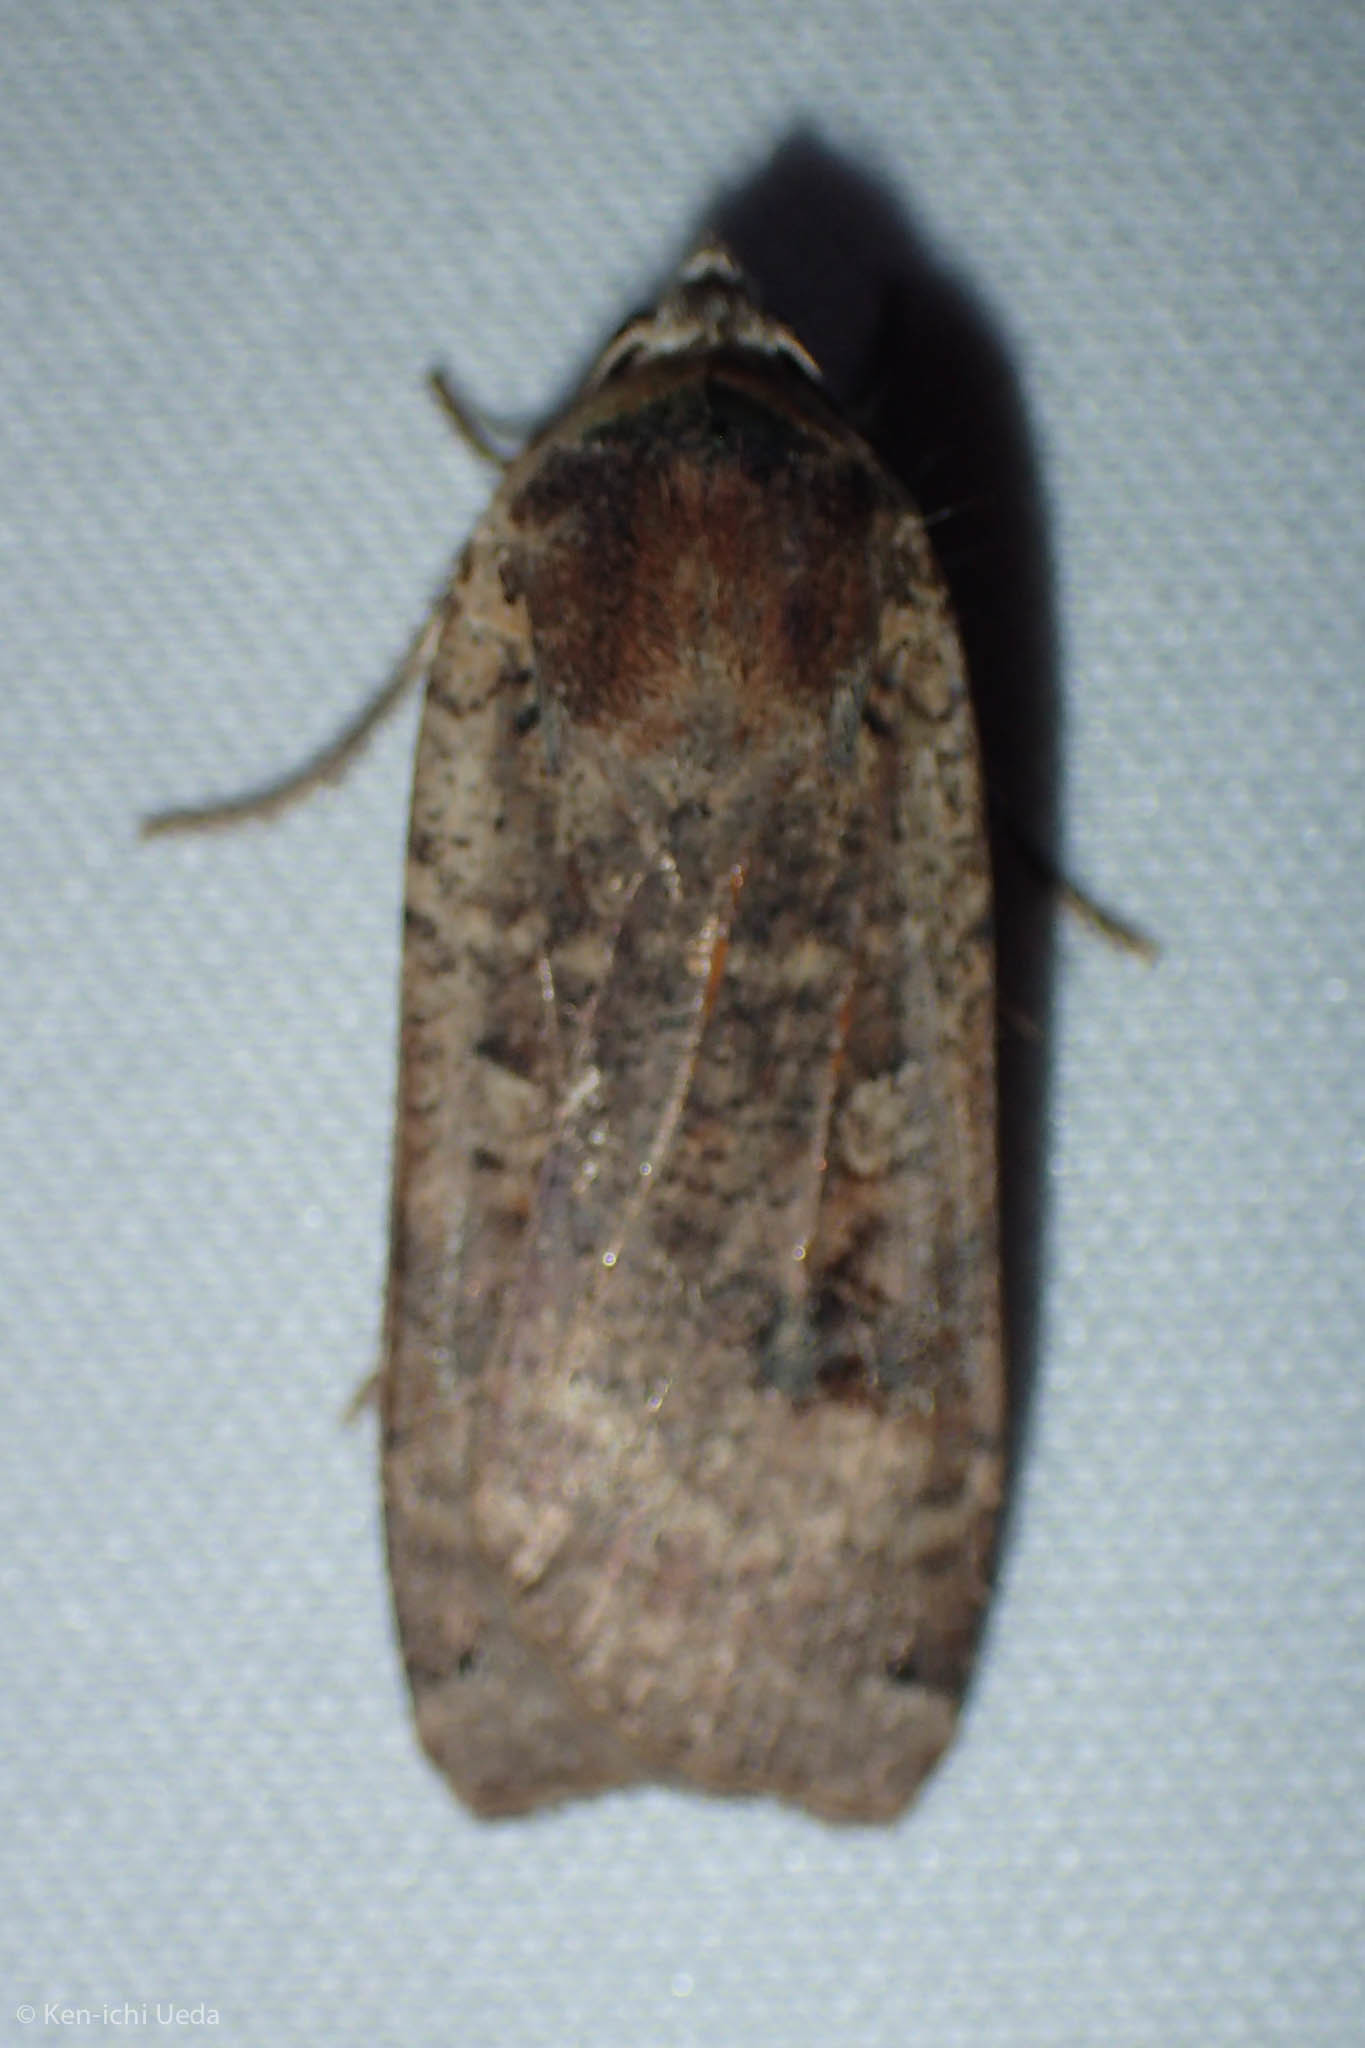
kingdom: Animalia
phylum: Arthropoda
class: Insecta
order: Lepidoptera
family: Noctuidae
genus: Noctua
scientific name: Noctua pronuba
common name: Large yellow underwing
